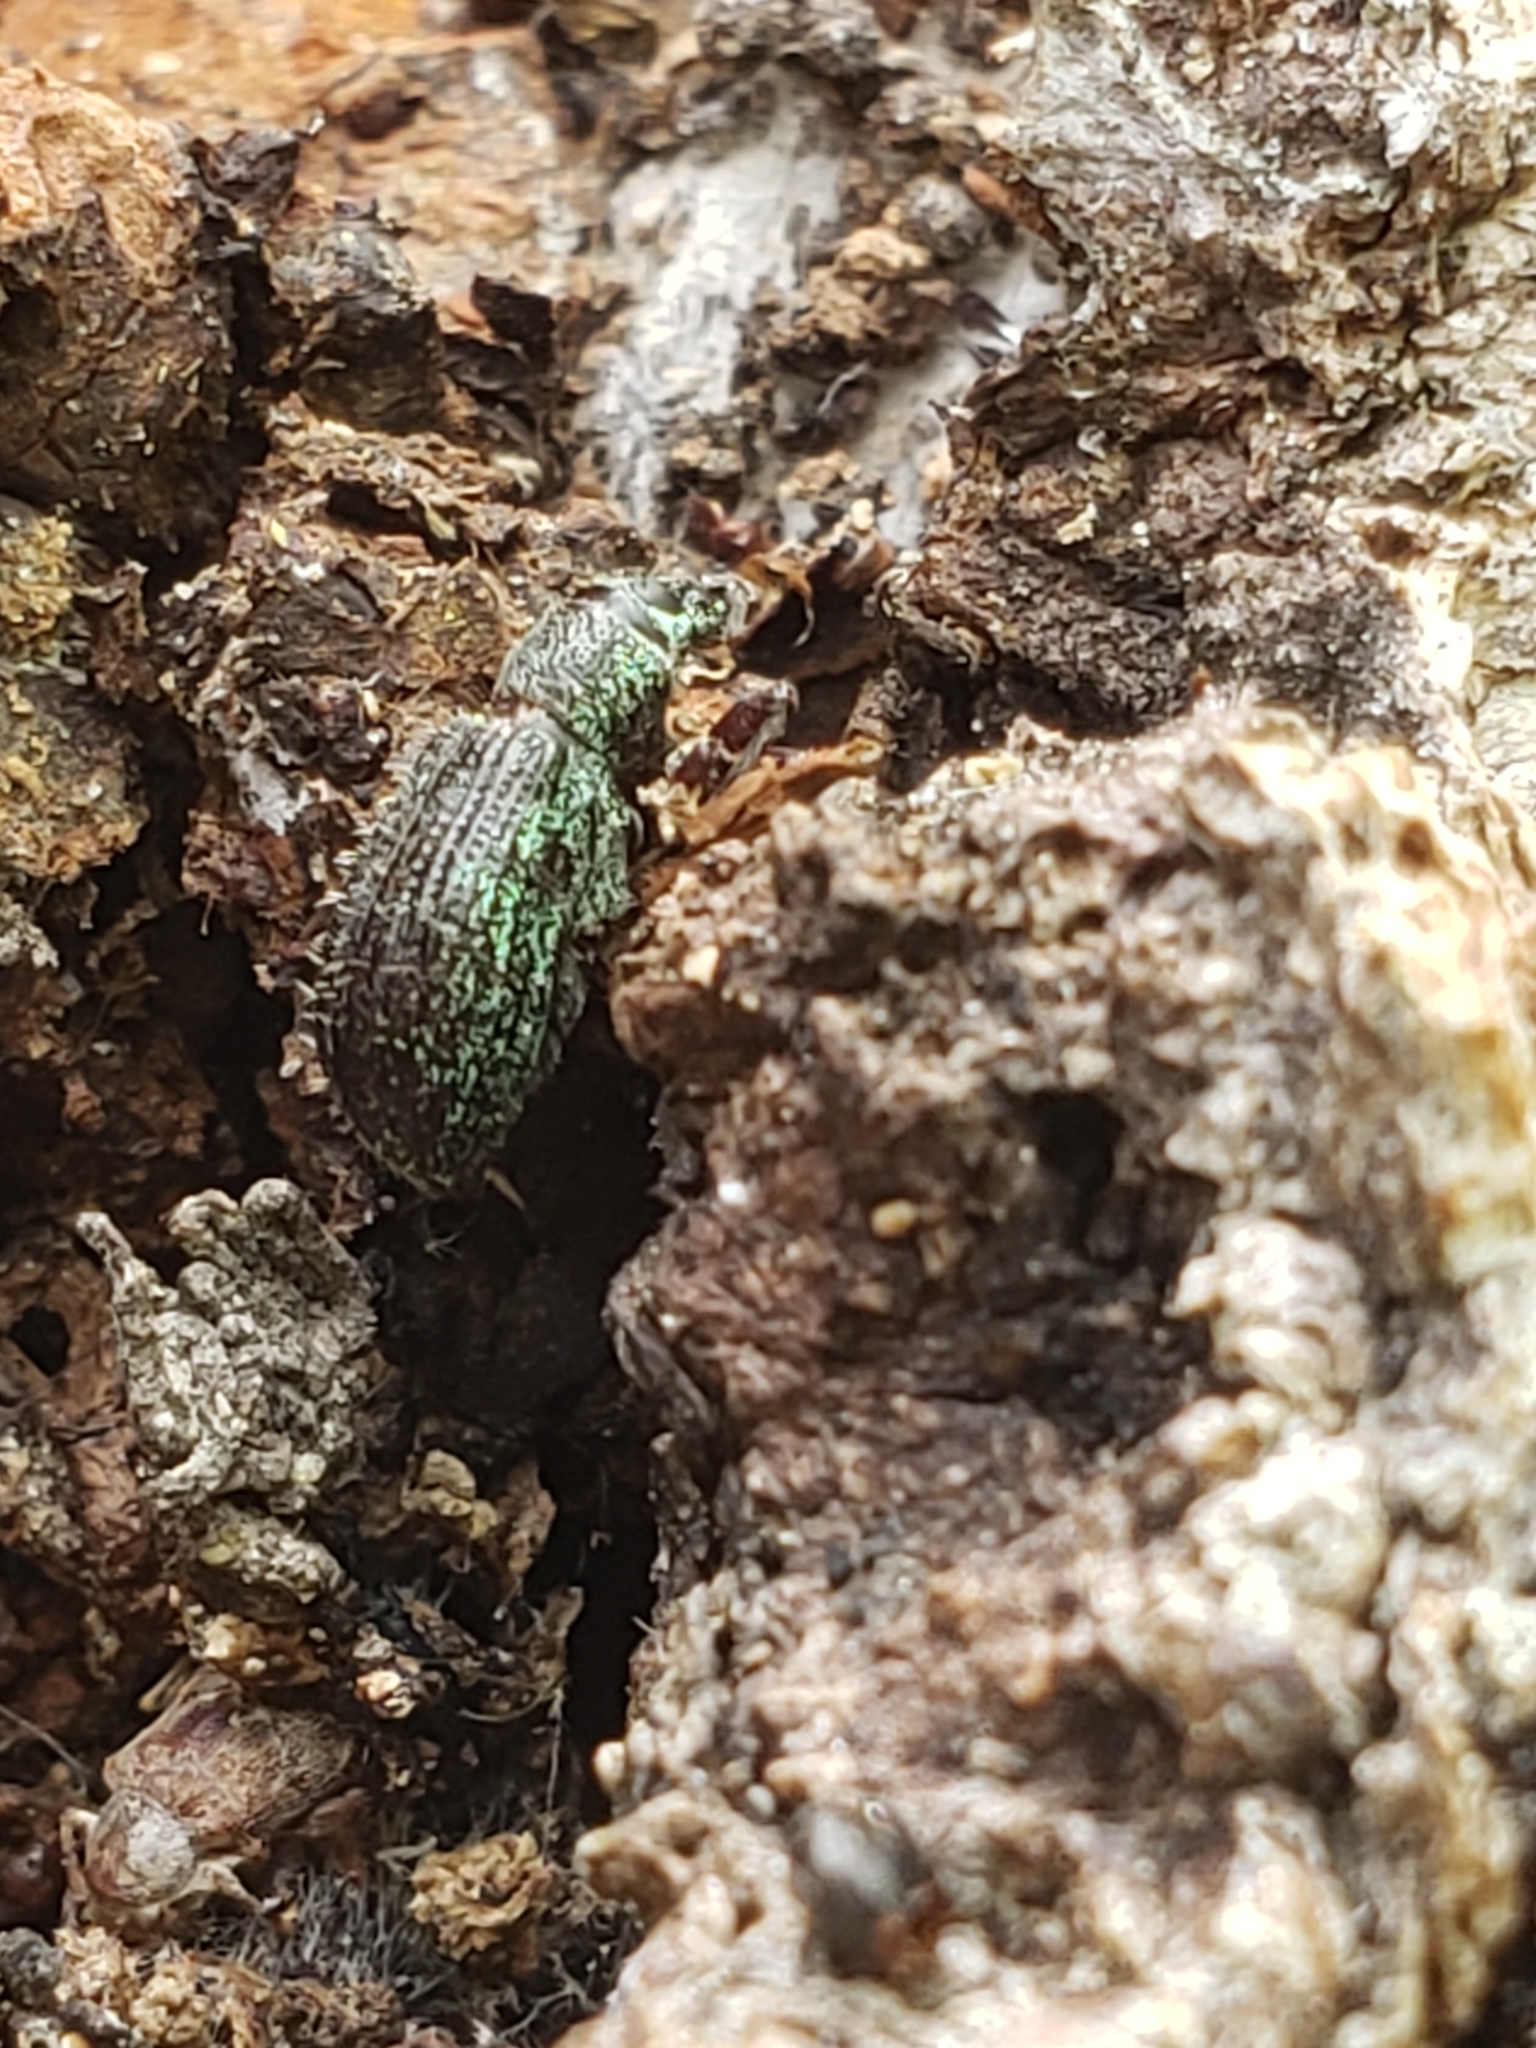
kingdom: Animalia
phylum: Arthropoda
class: Insecta
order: Coleoptera
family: Curculionidae
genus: Cyrtepistomus
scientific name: Cyrtepistomus castaneus
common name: Weevil
